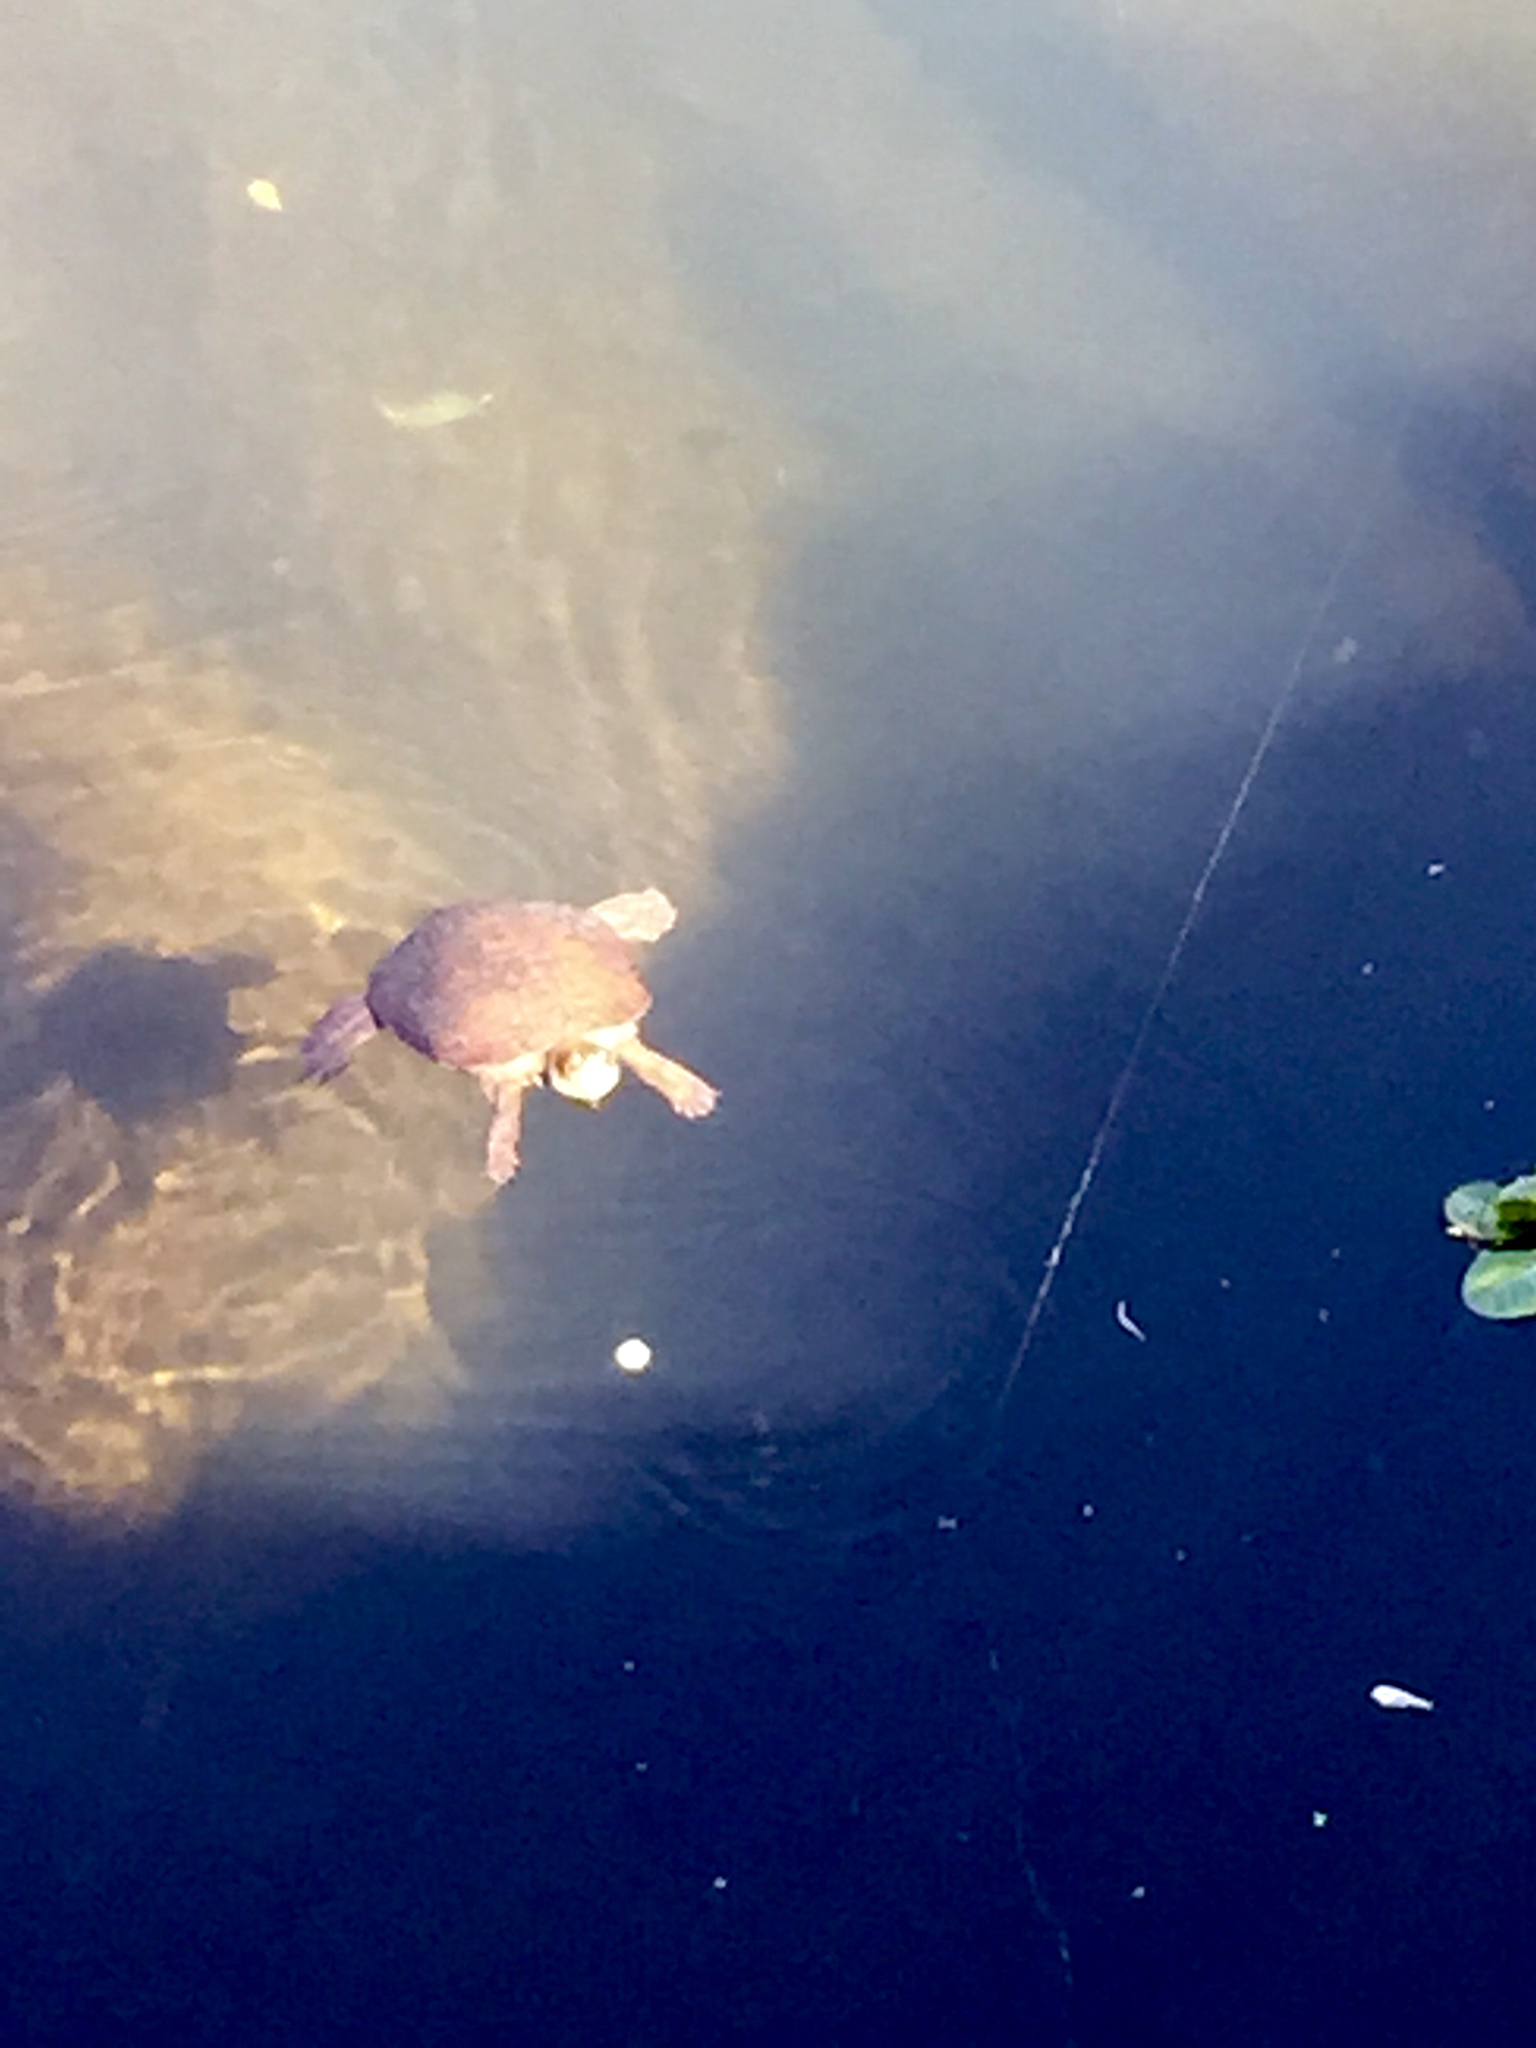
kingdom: Animalia
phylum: Chordata
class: Testudines
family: Emydidae
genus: Actinemys
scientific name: Actinemys marmorata
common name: Western pond turtle
